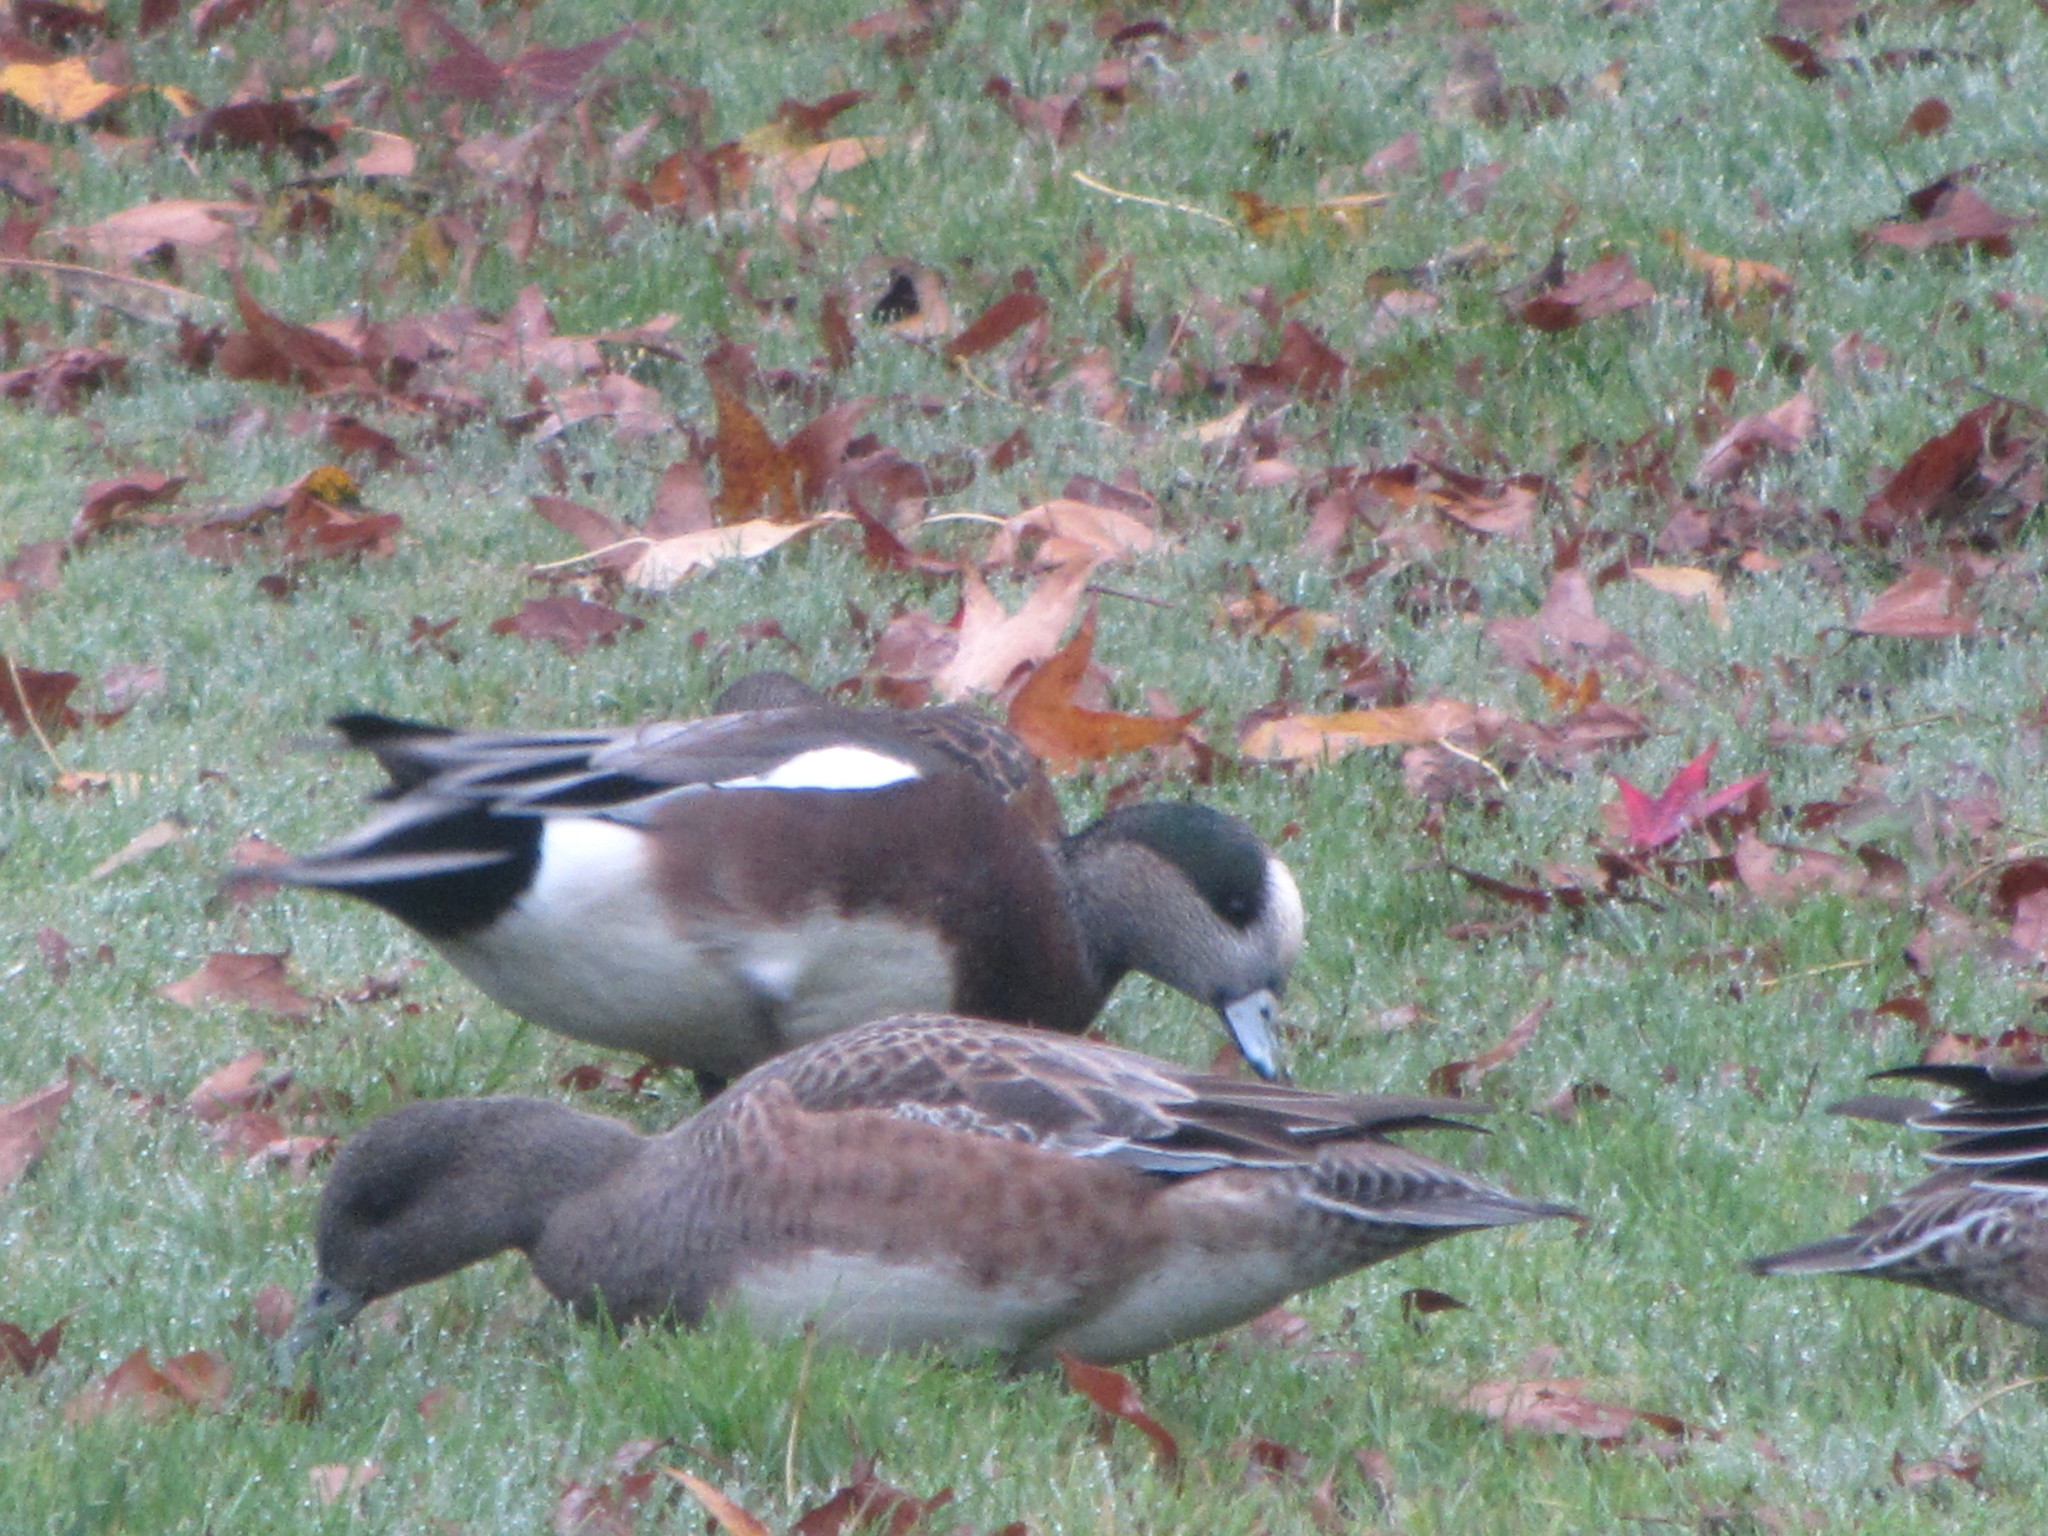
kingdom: Animalia
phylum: Chordata
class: Aves
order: Anseriformes
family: Anatidae
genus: Mareca
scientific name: Mareca americana
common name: American wigeon
